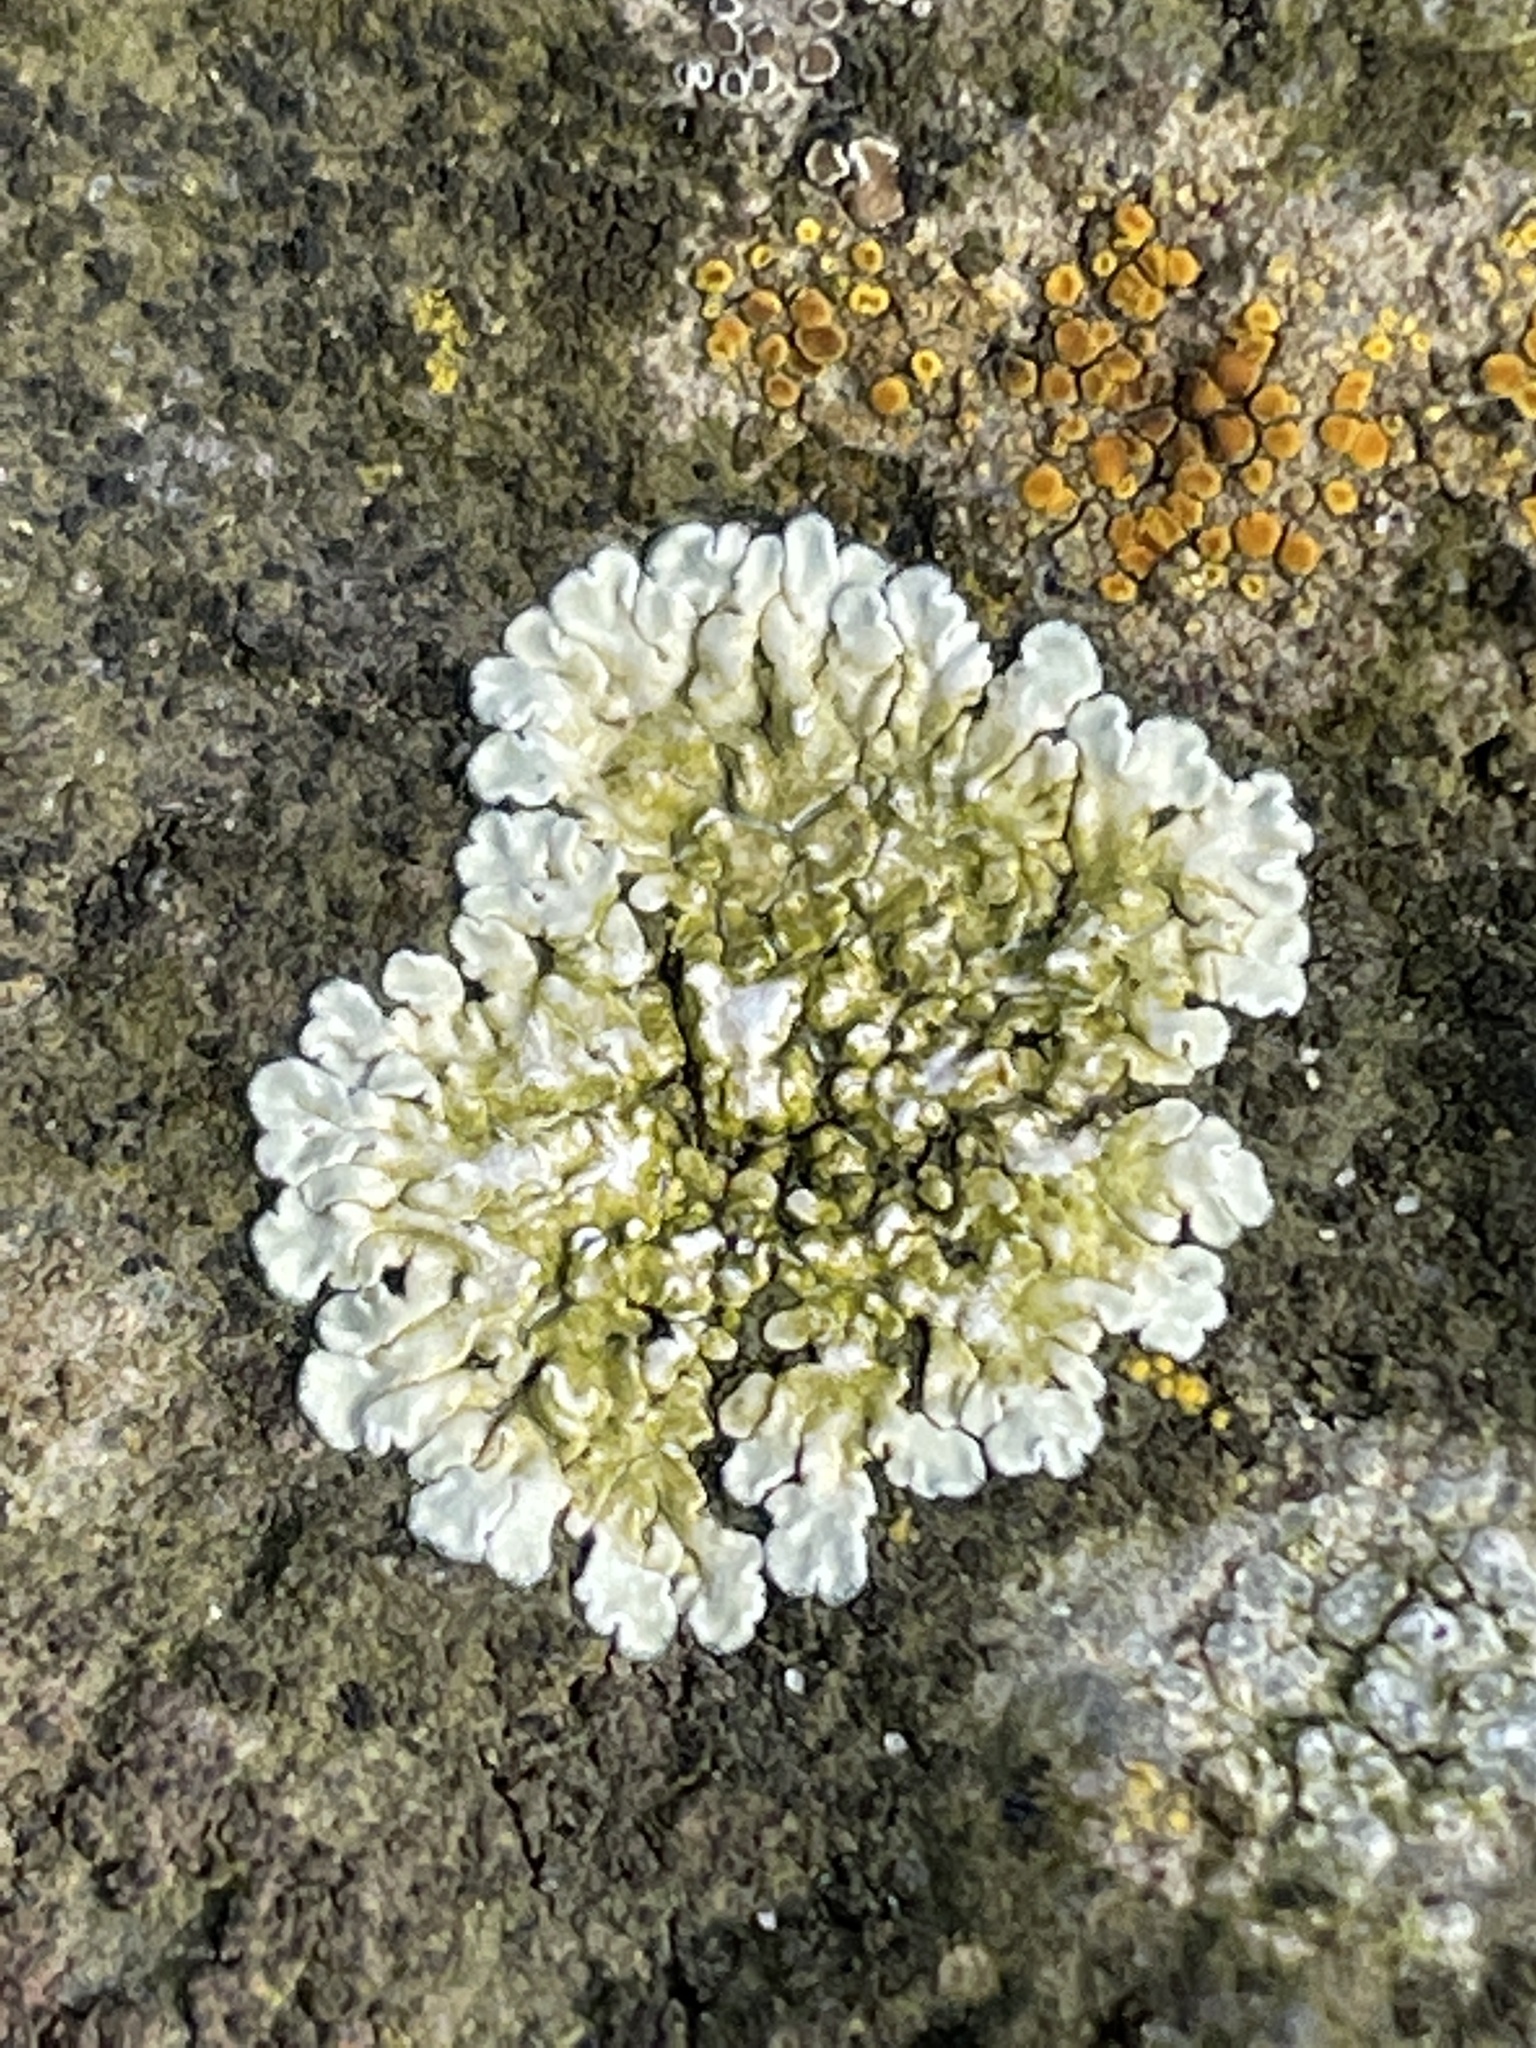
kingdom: Fungi
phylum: Ascomycota
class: Lecanoromycetes
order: Lecanorales
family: Lecanoraceae
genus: Protoparmeliopsis
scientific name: Protoparmeliopsis muralis
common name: Stonewall rim lichen
